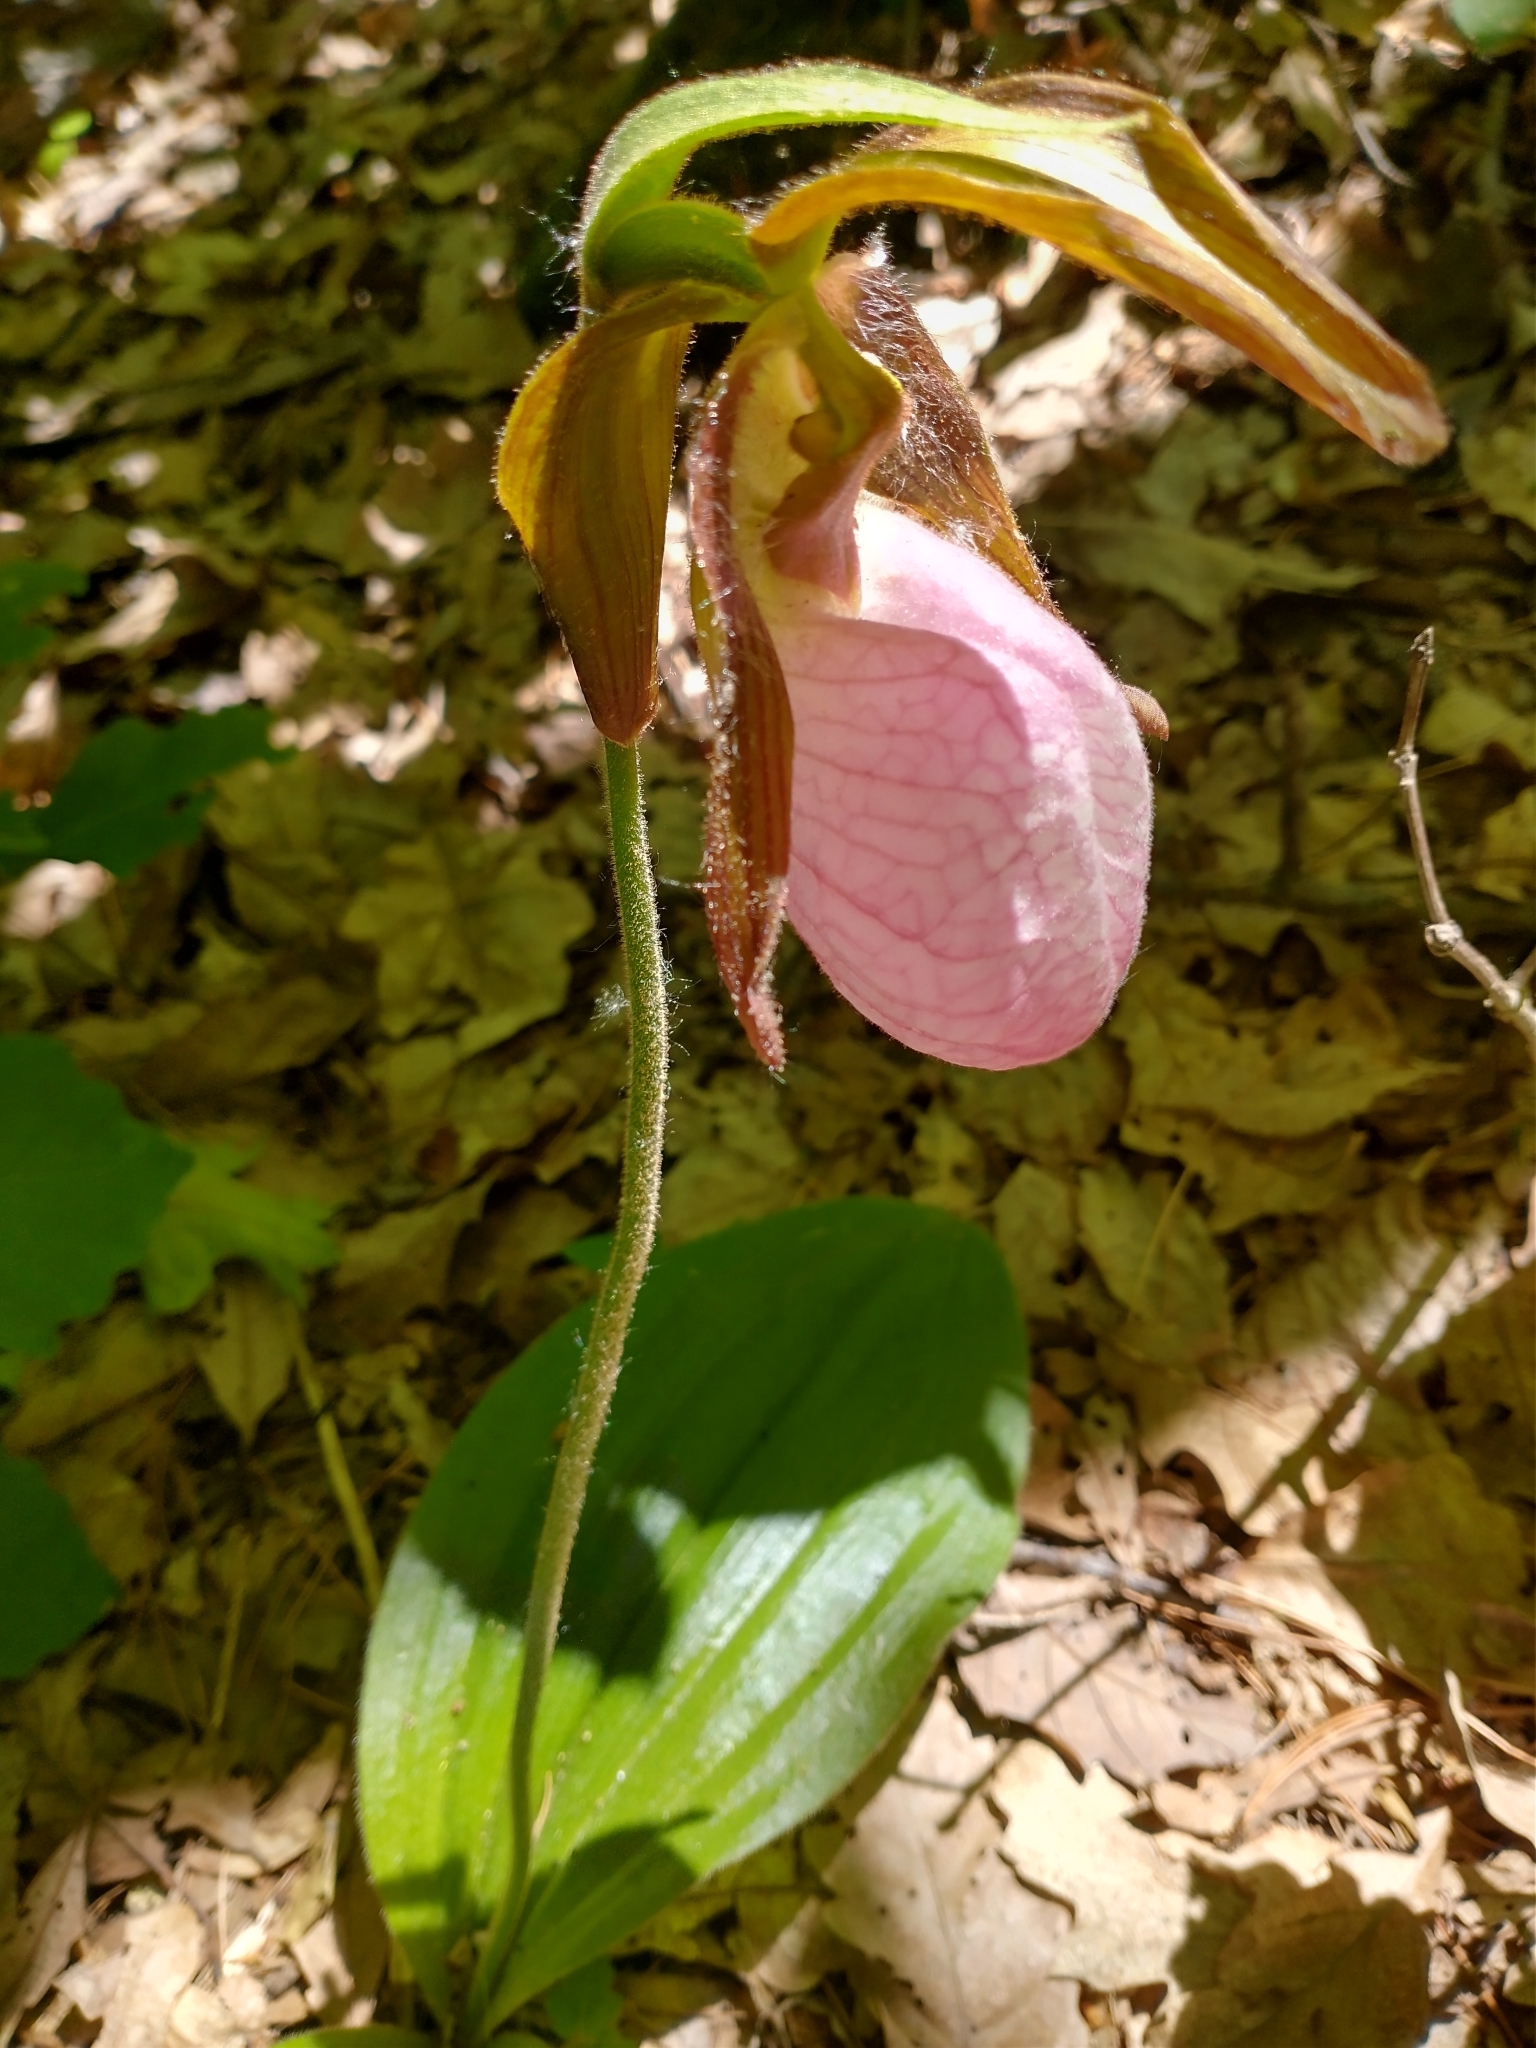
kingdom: Plantae
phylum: Tracheophyta
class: Liliopsida
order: Asparagales
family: Orchidaceae
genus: Cypripedium
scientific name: Cypripedium acaule
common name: Pink lady's-slipper
